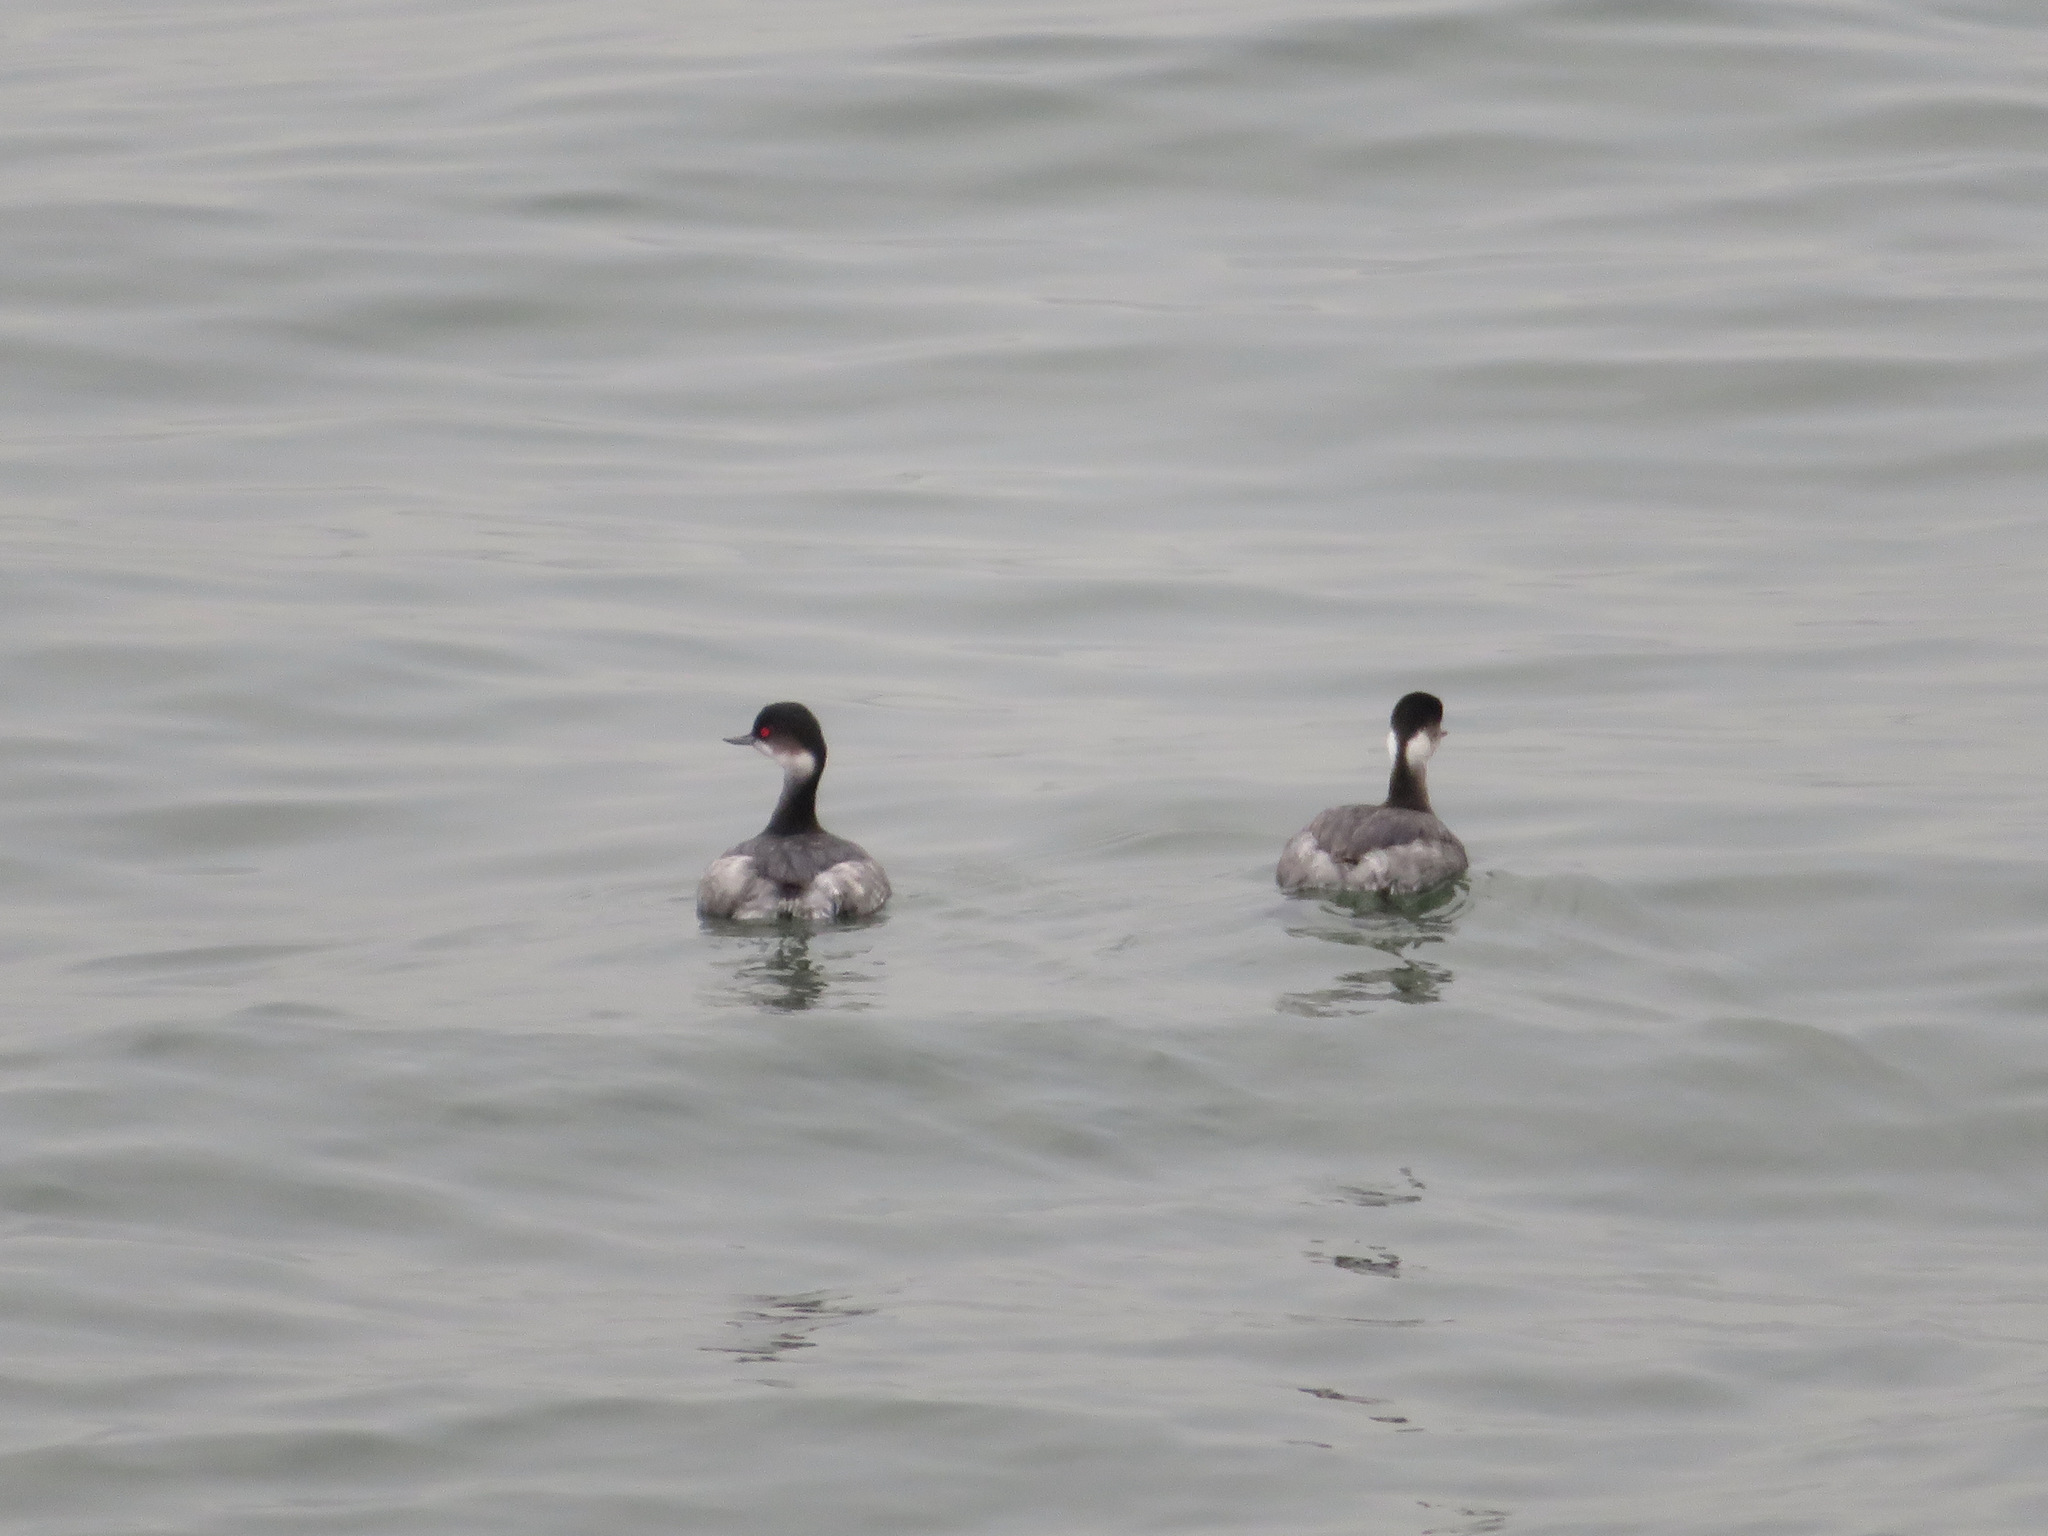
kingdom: Animalia
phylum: Chordata
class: Aves
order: Podicipediformes
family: Podicipedidae
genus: Podiceps
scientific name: Podiceps nigricollis
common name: Black-necked grebe
